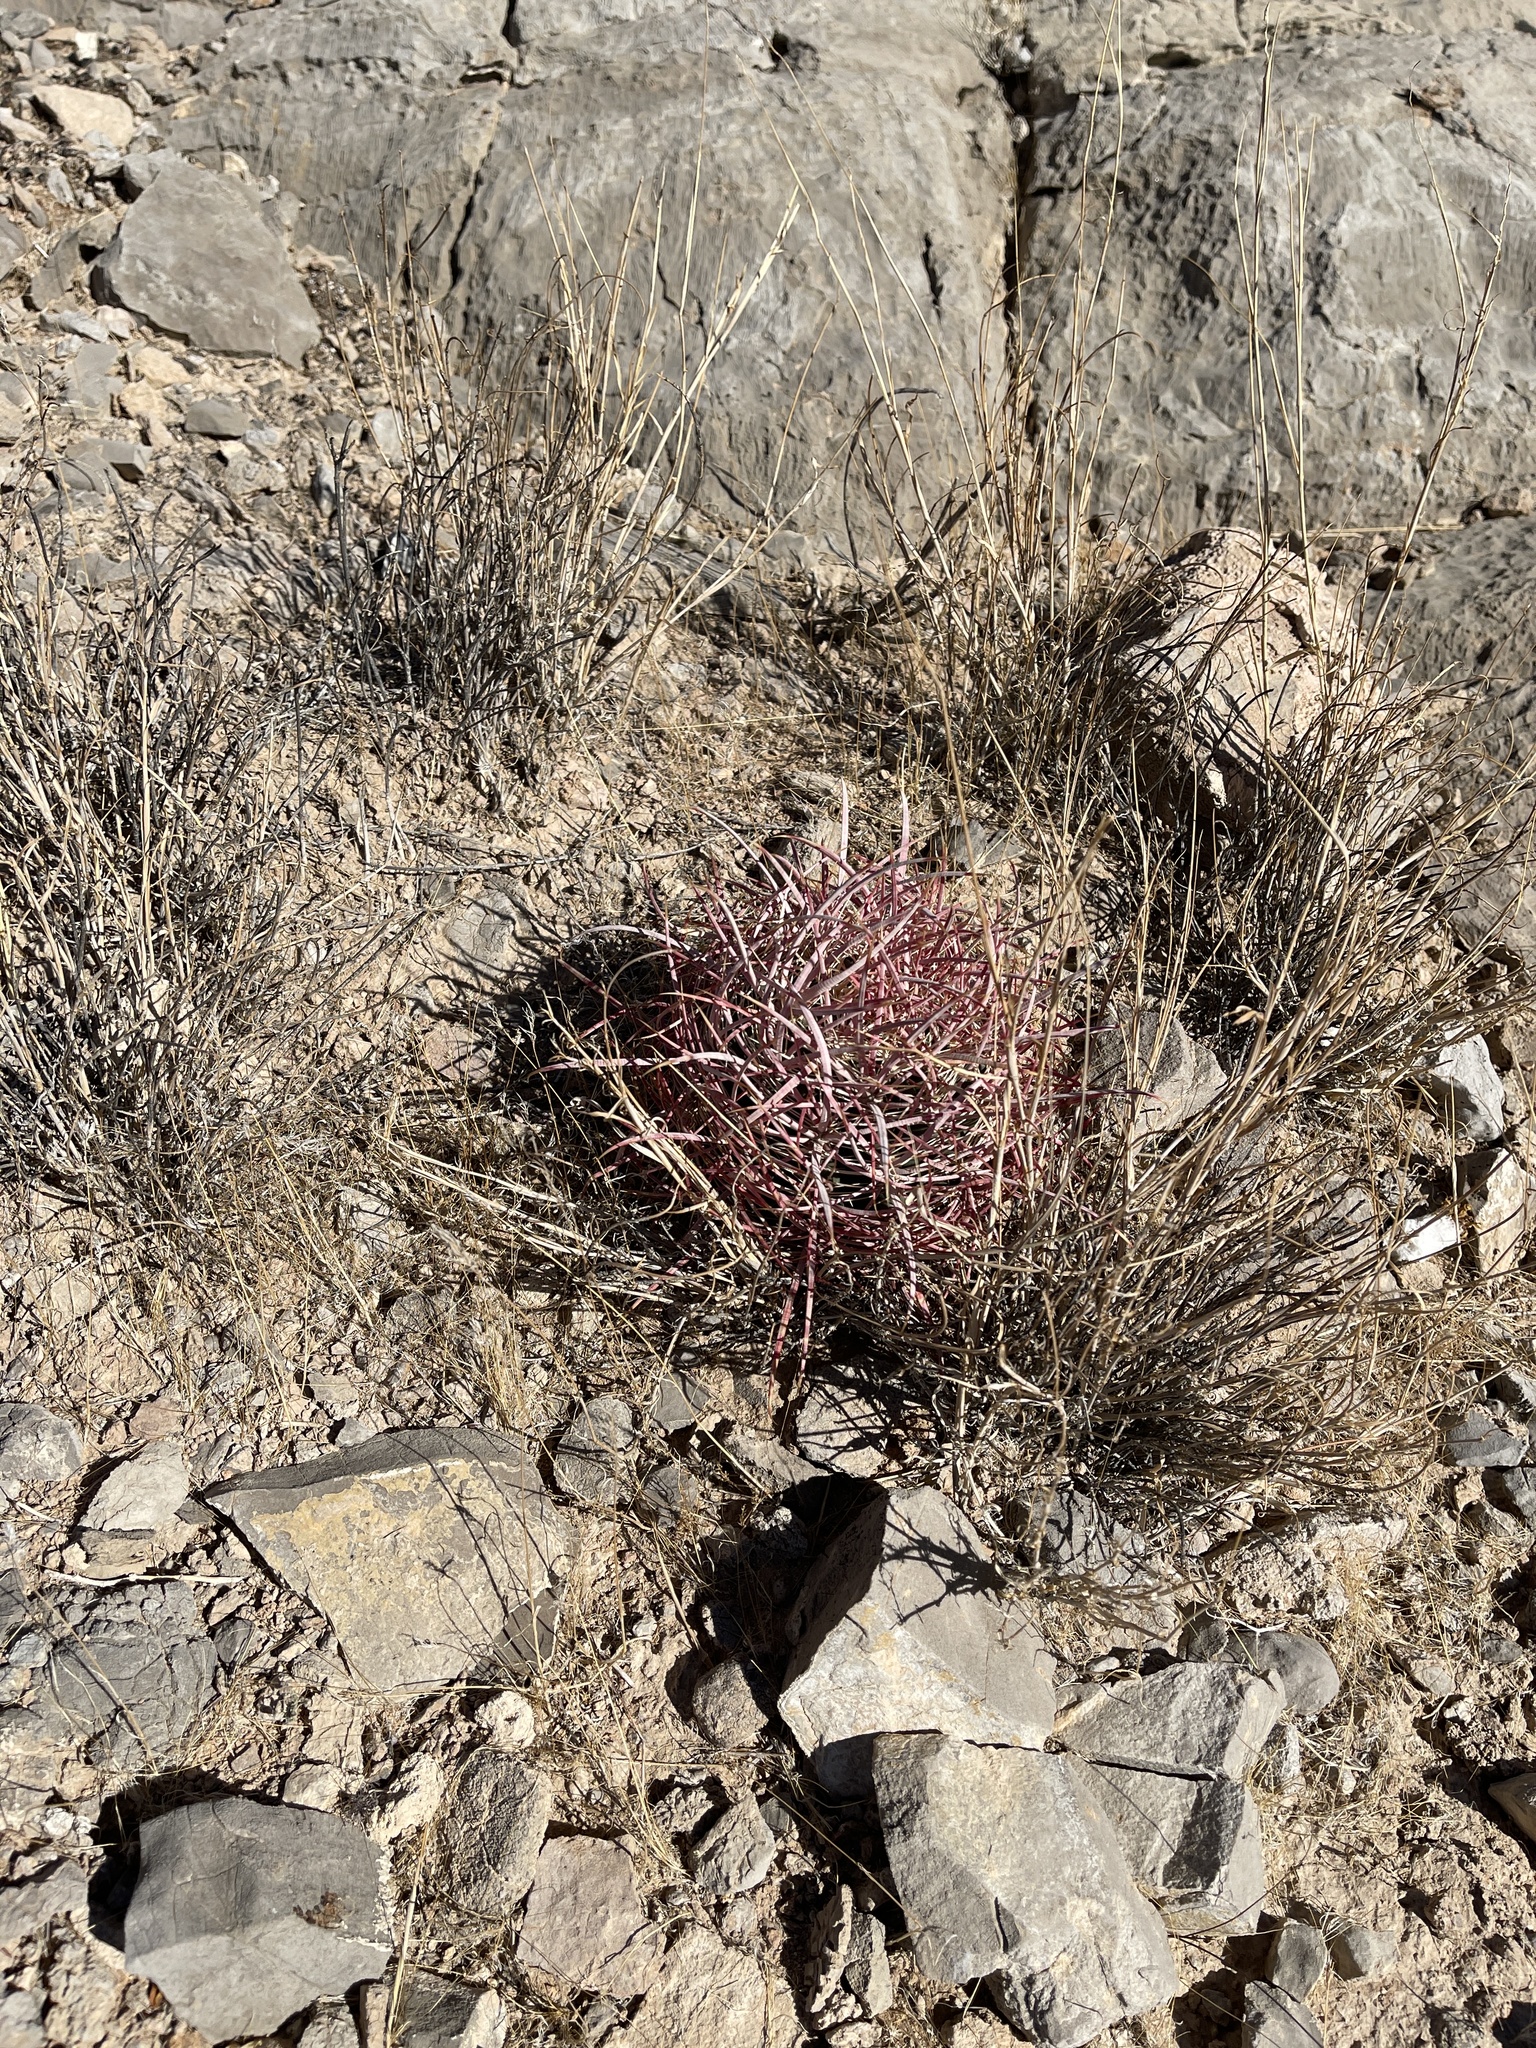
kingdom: Plantae
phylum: Tracheophyta
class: Magnoliopsida
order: Caryophyllales
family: Cactaceae
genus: Ferocactus
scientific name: Ferocactus cylindraceus
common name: California barrel cactus
